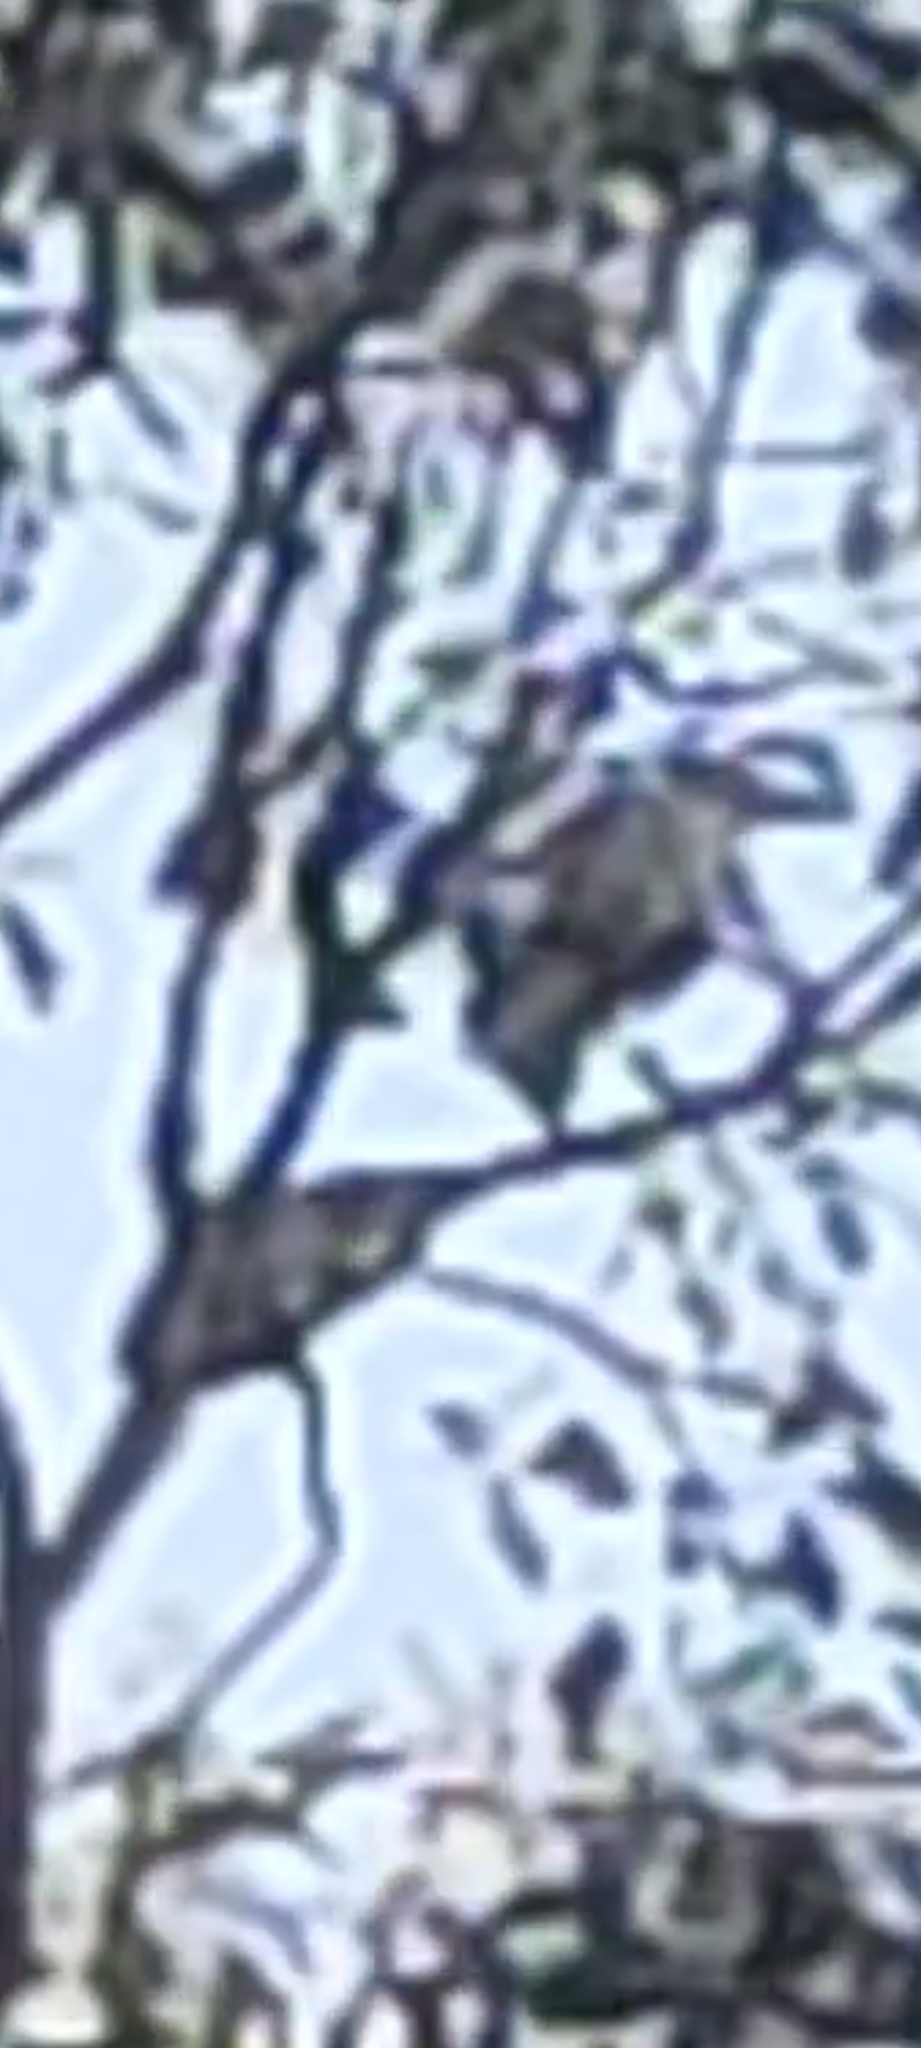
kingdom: Animalia
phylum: Chordata
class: Aves
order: Passeriformes
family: Cracticidae
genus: Cracticus
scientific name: Cracticus torquatus
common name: Grey butcherbird
